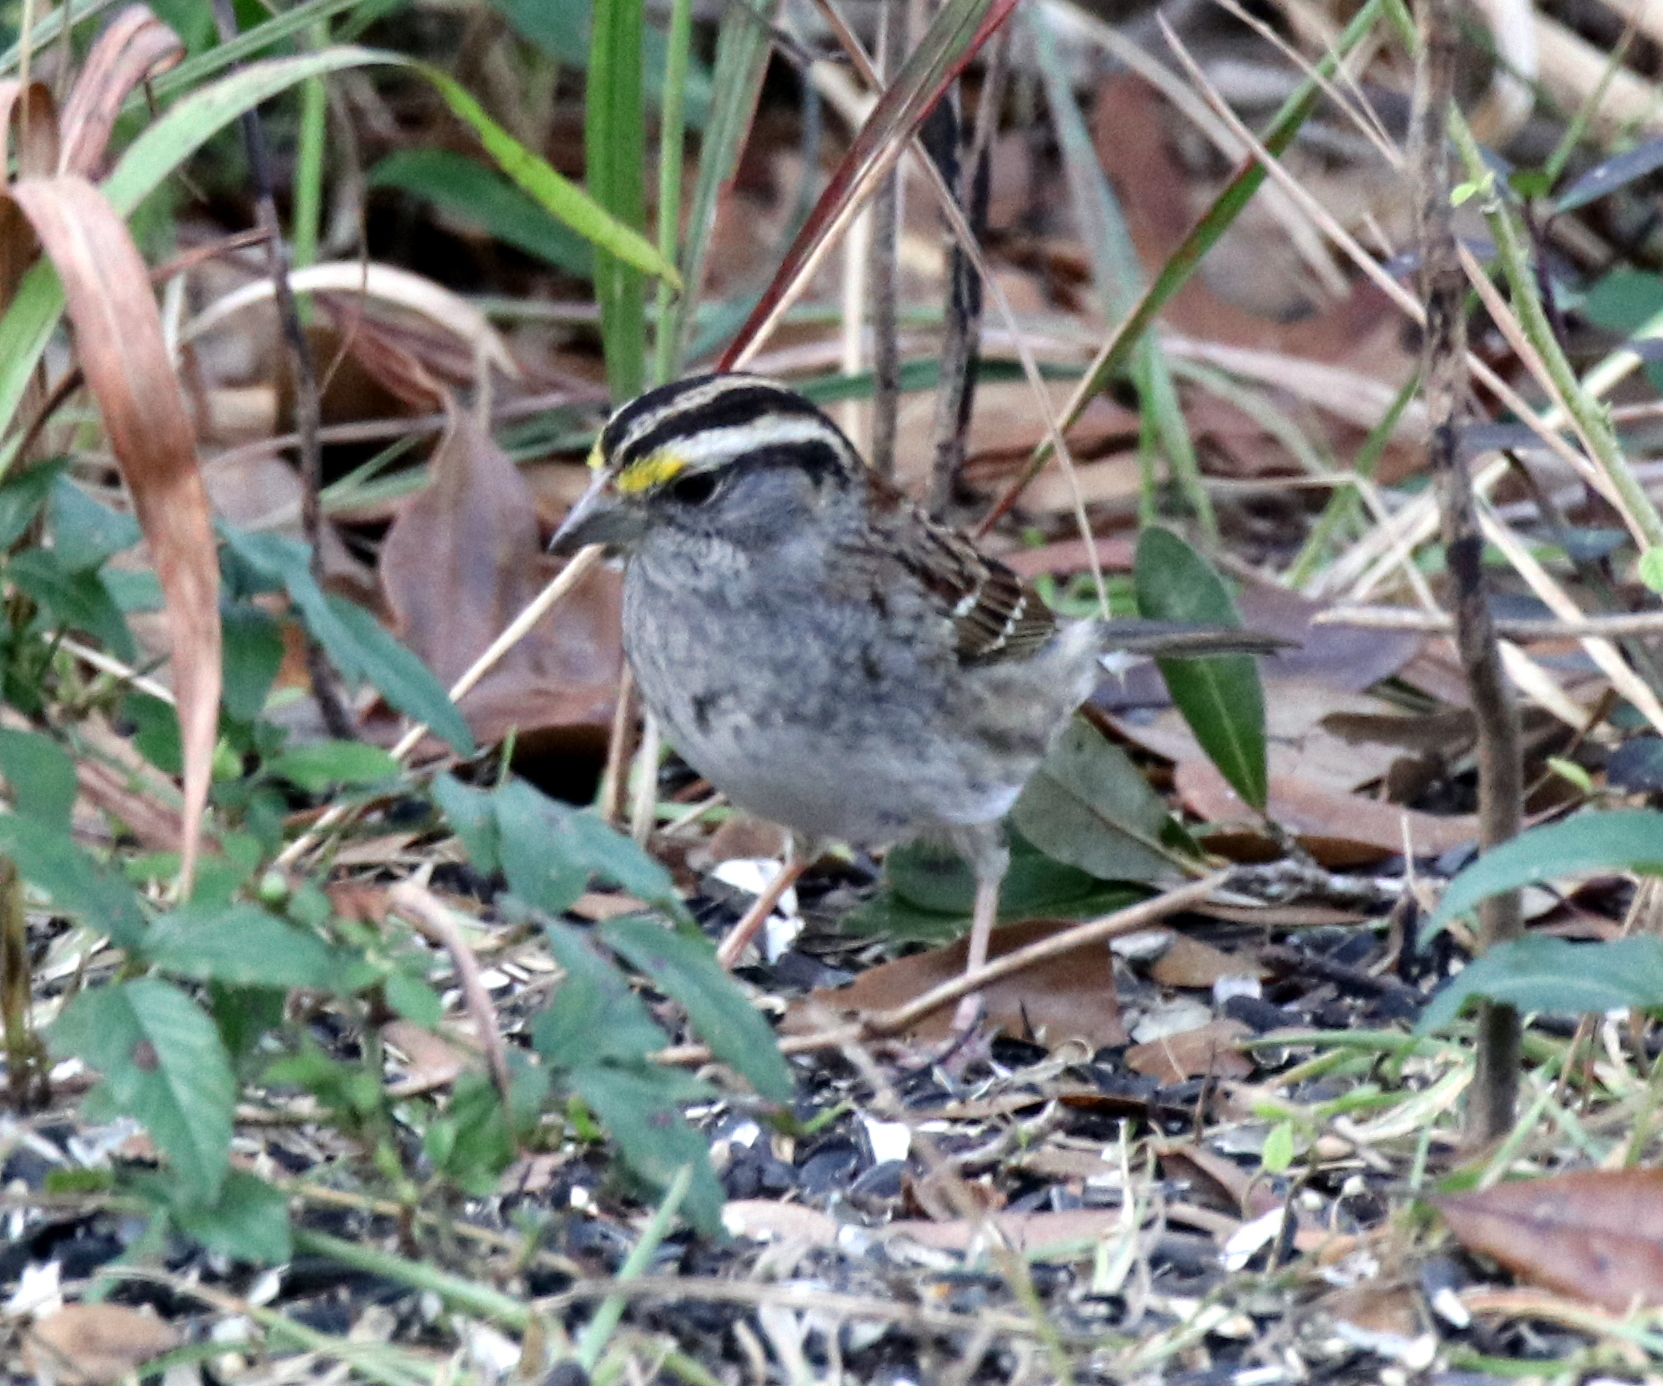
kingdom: Animalia
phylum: Chordata
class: Aves
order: Passeriformes
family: Passerellidae
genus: Zonotrichia
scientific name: Zonotrichia albicollis
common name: White-throated sparrow
